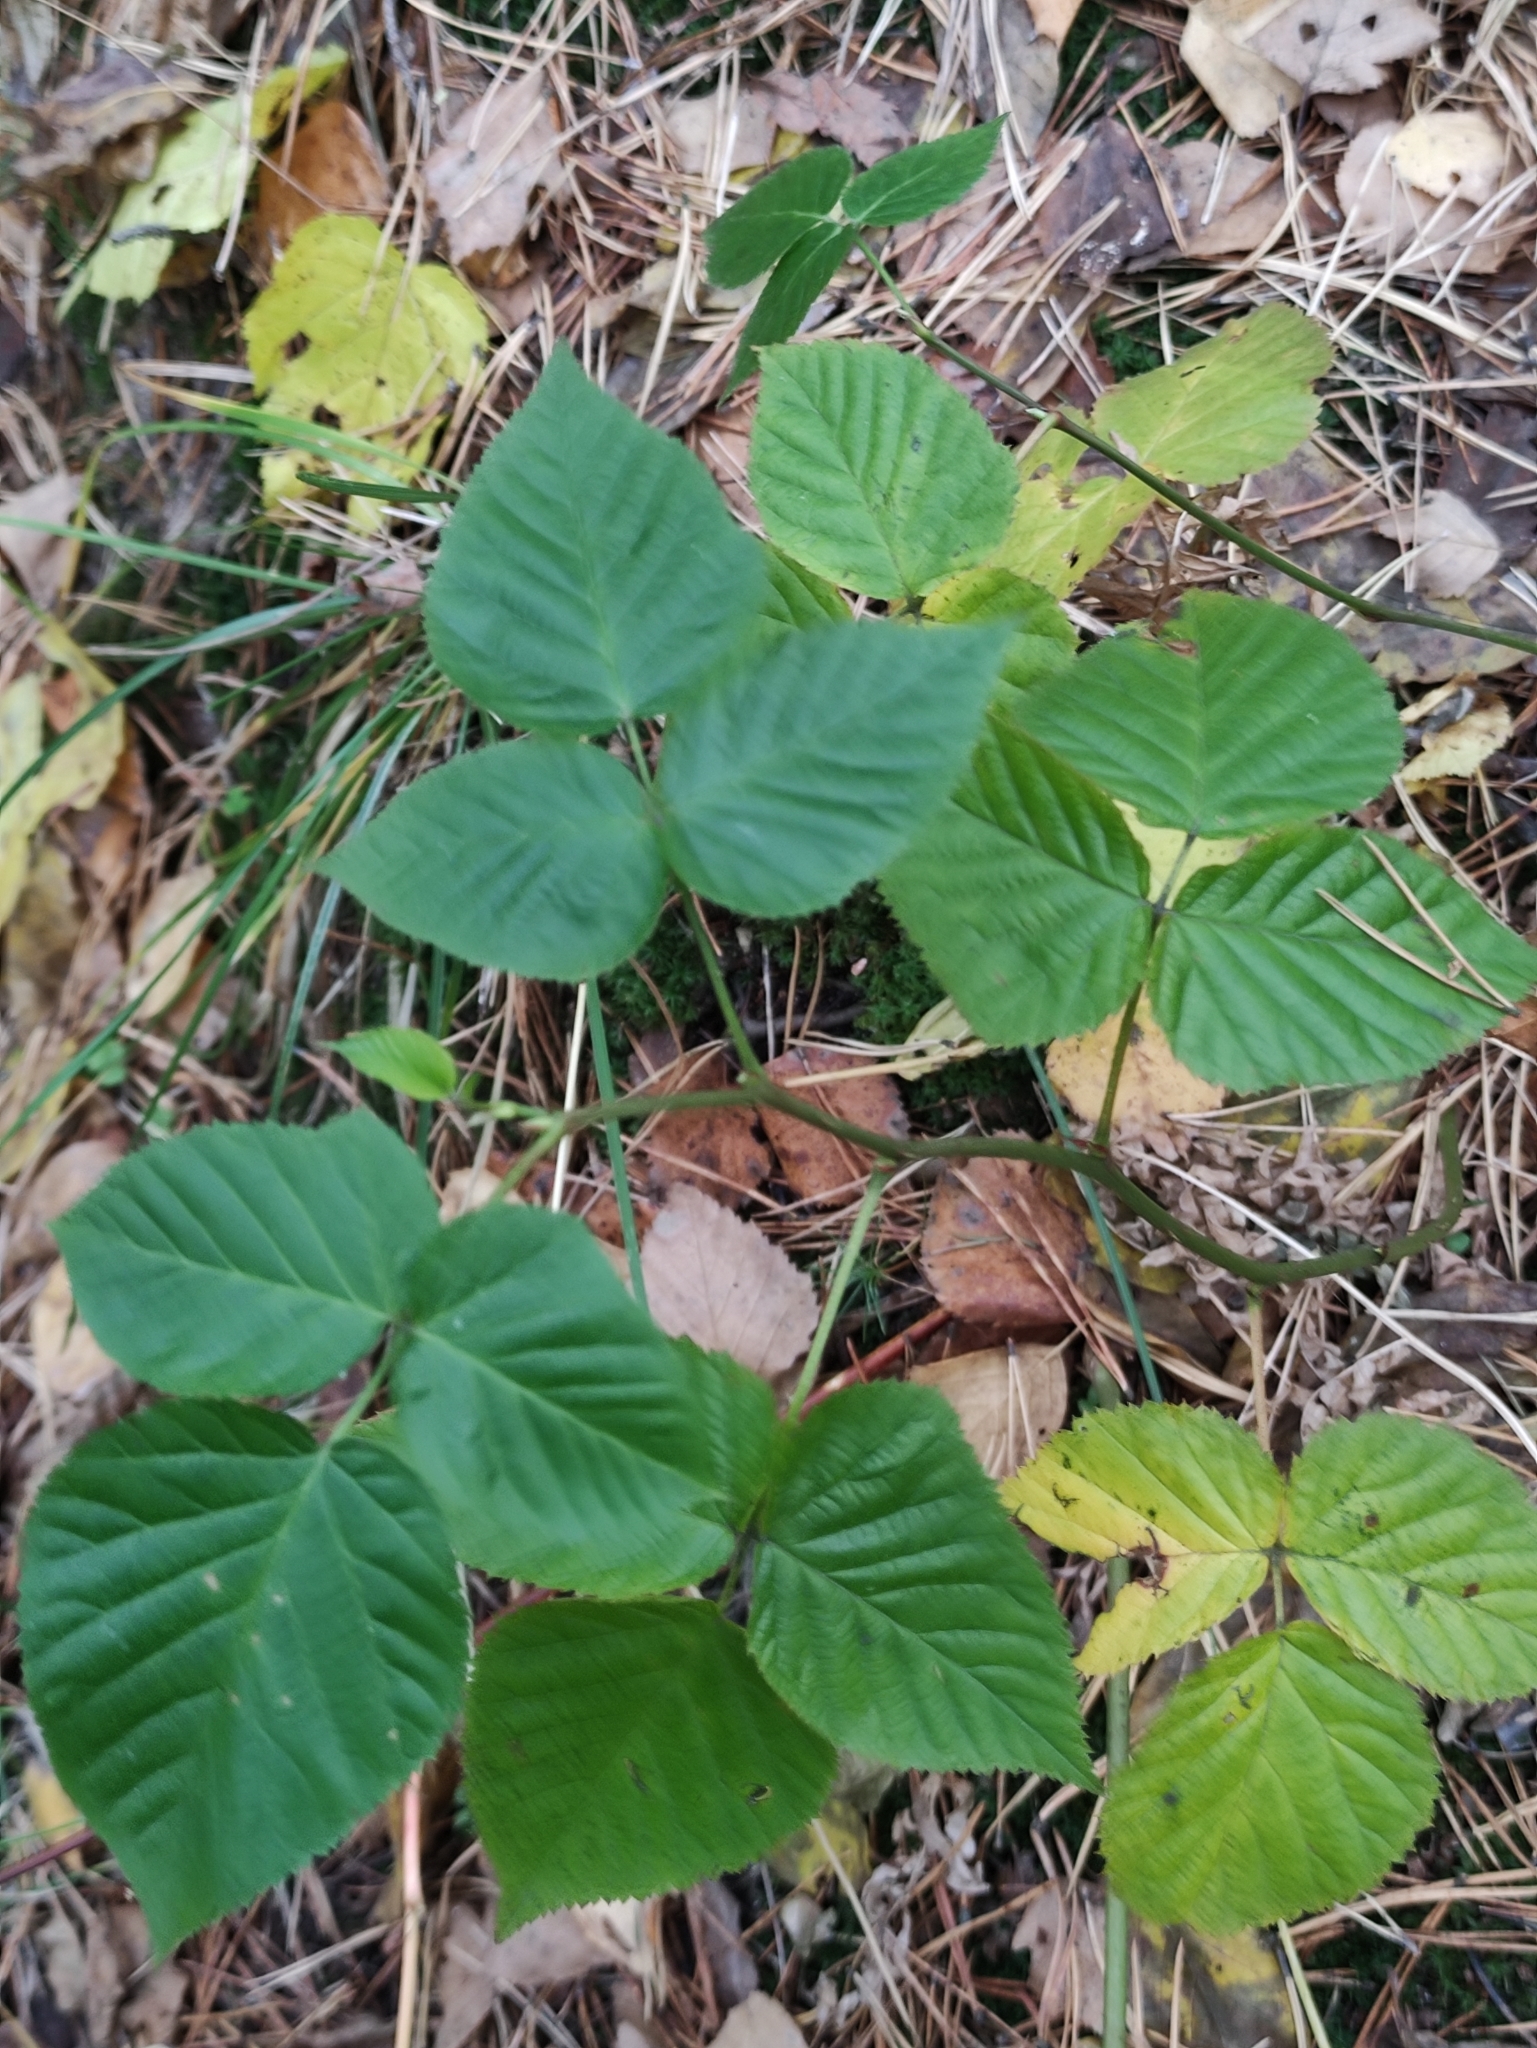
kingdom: Plantae
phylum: Tracheophyta
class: Magnoliopsida
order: Rosales
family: Rosaceae
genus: Rubus
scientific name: Rubus idaeus
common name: Raspberry
